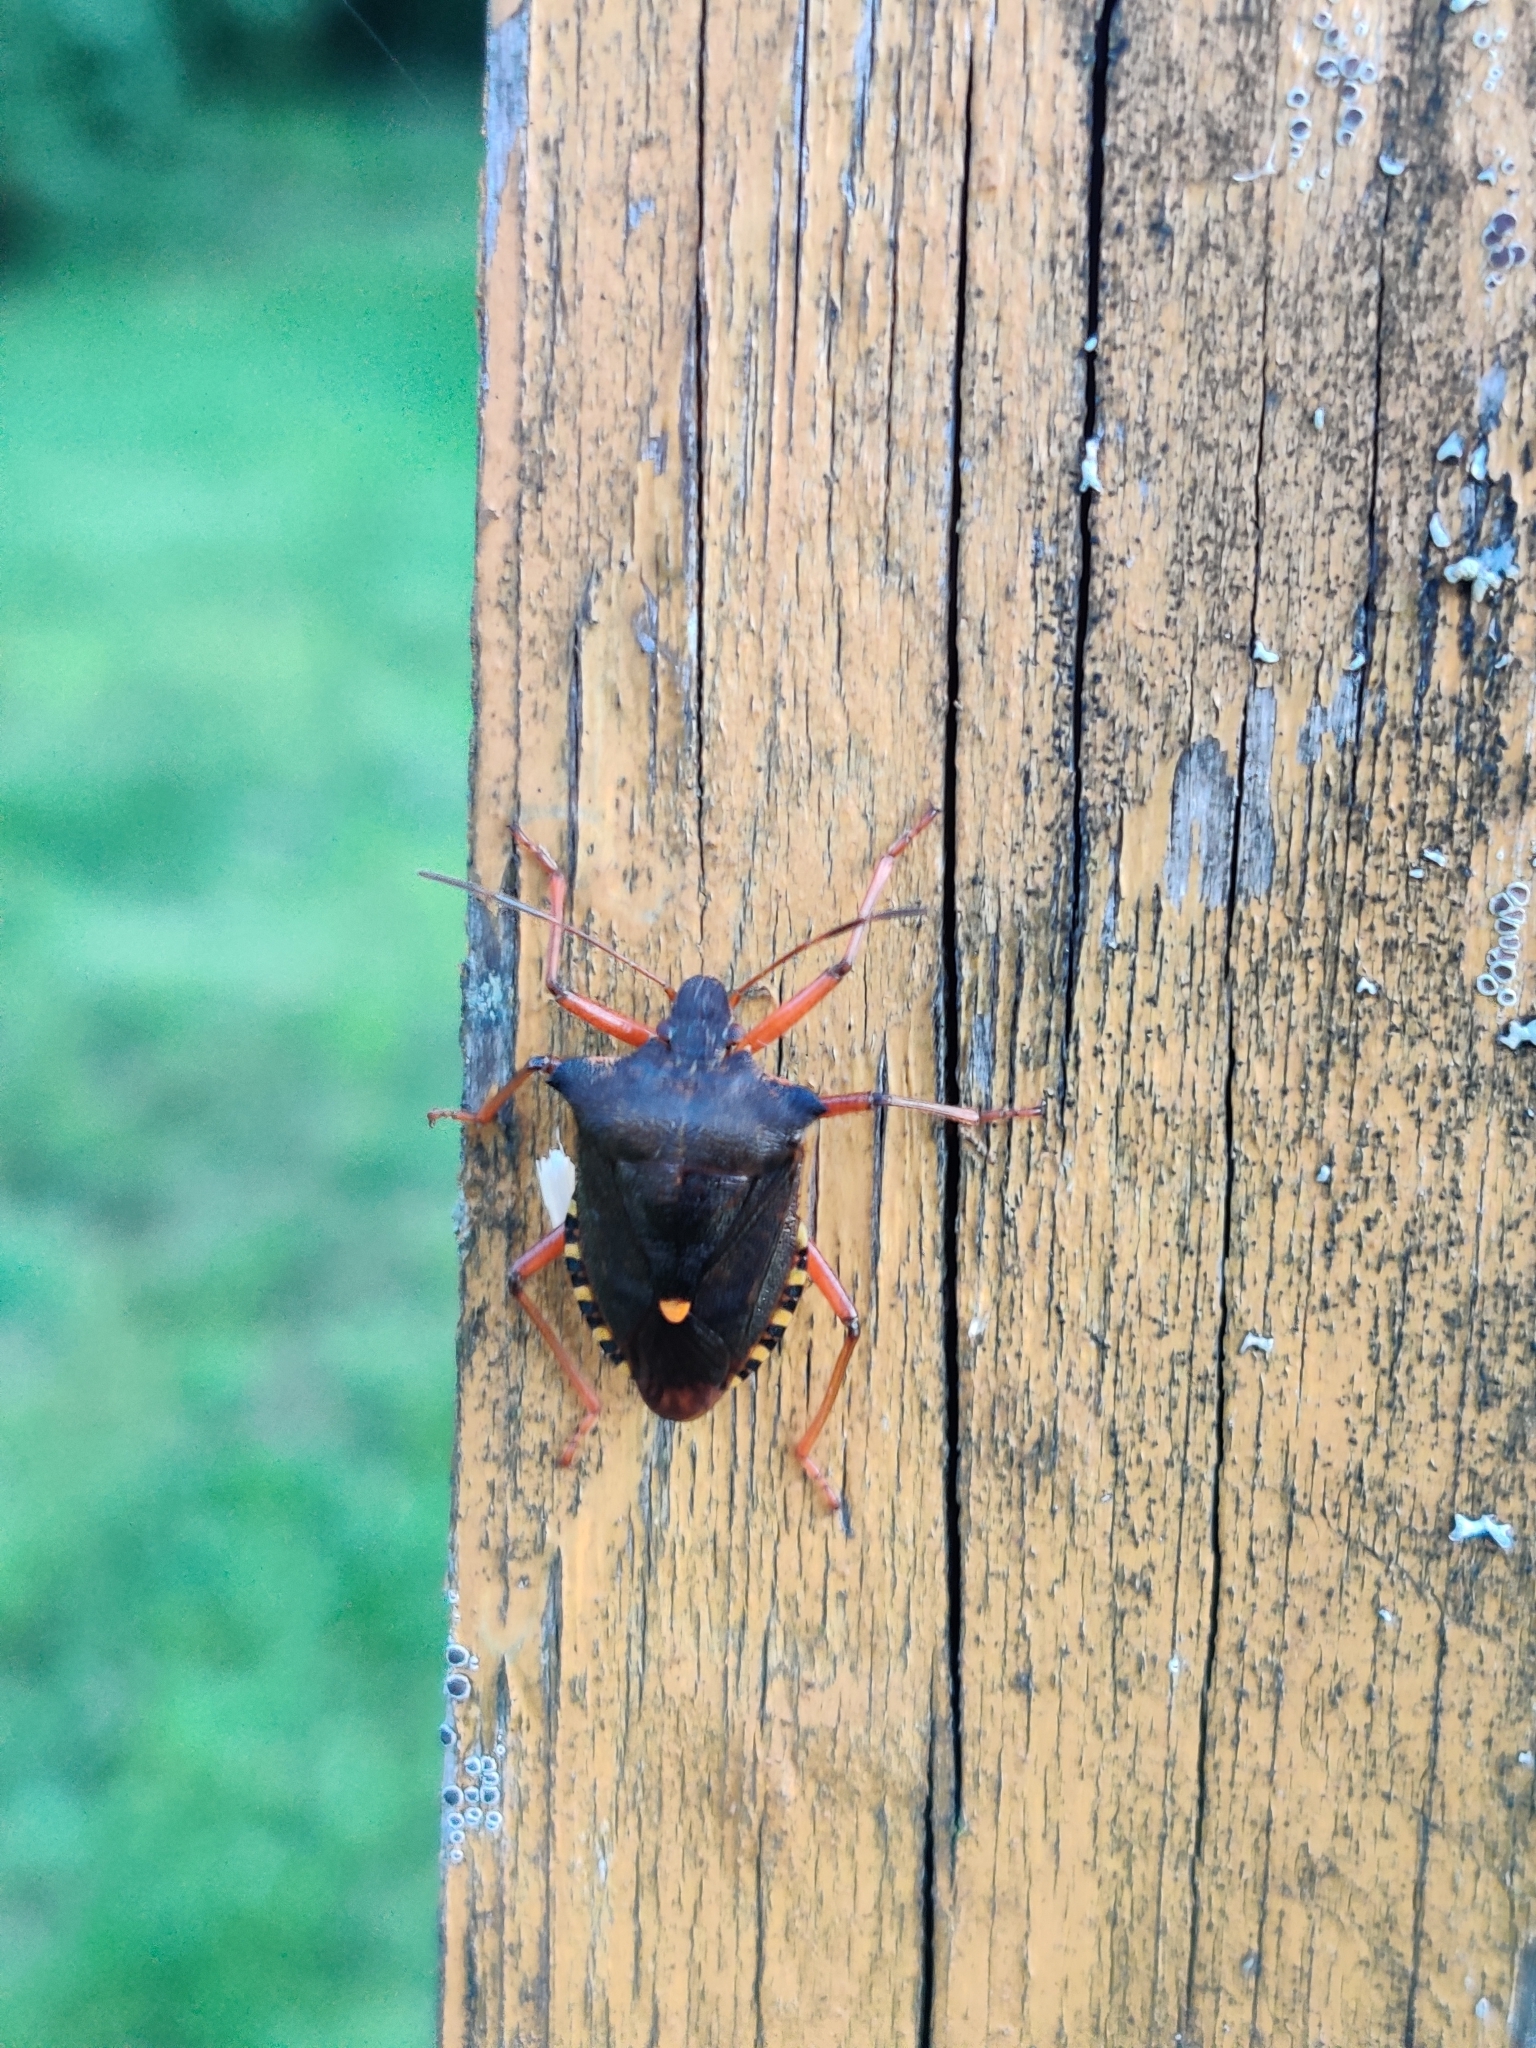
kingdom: Animalia
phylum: Arthropoda
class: Insecta
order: Hemiptera
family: Pentatomidae
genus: Pentatoma
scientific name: Pentatoma rufipes
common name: Forest bug
